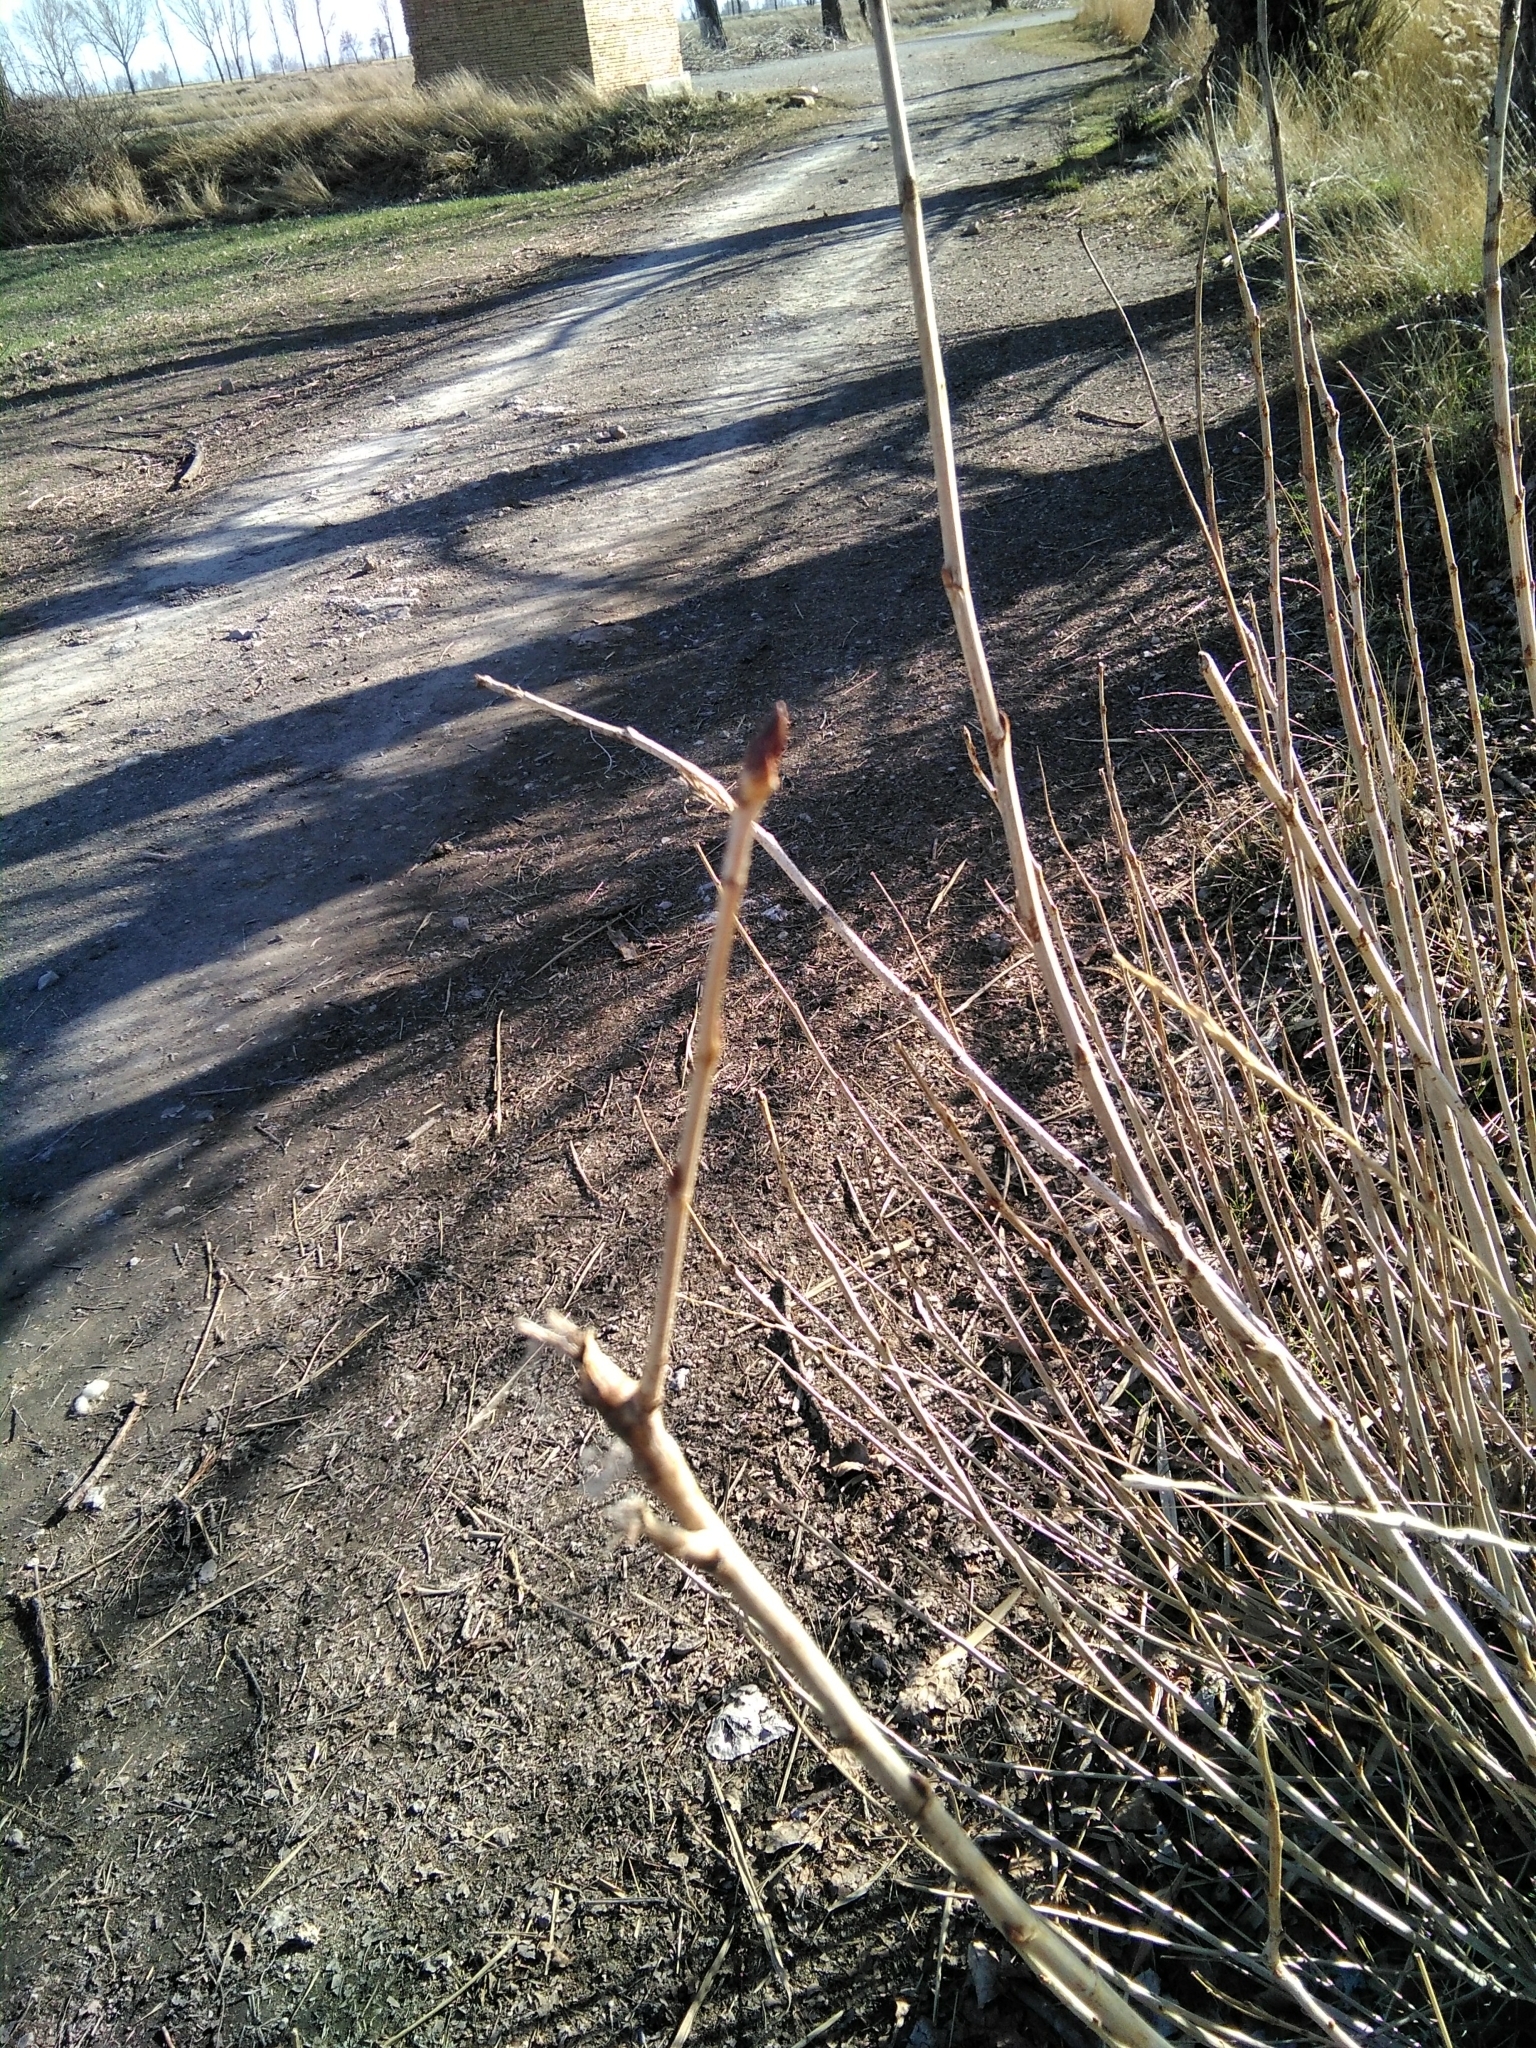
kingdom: Plantae
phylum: Tracheophyta
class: Magnoliopsida
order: Malpighiales
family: Salicaceae
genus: Populus
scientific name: Populus alba
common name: White poplar
